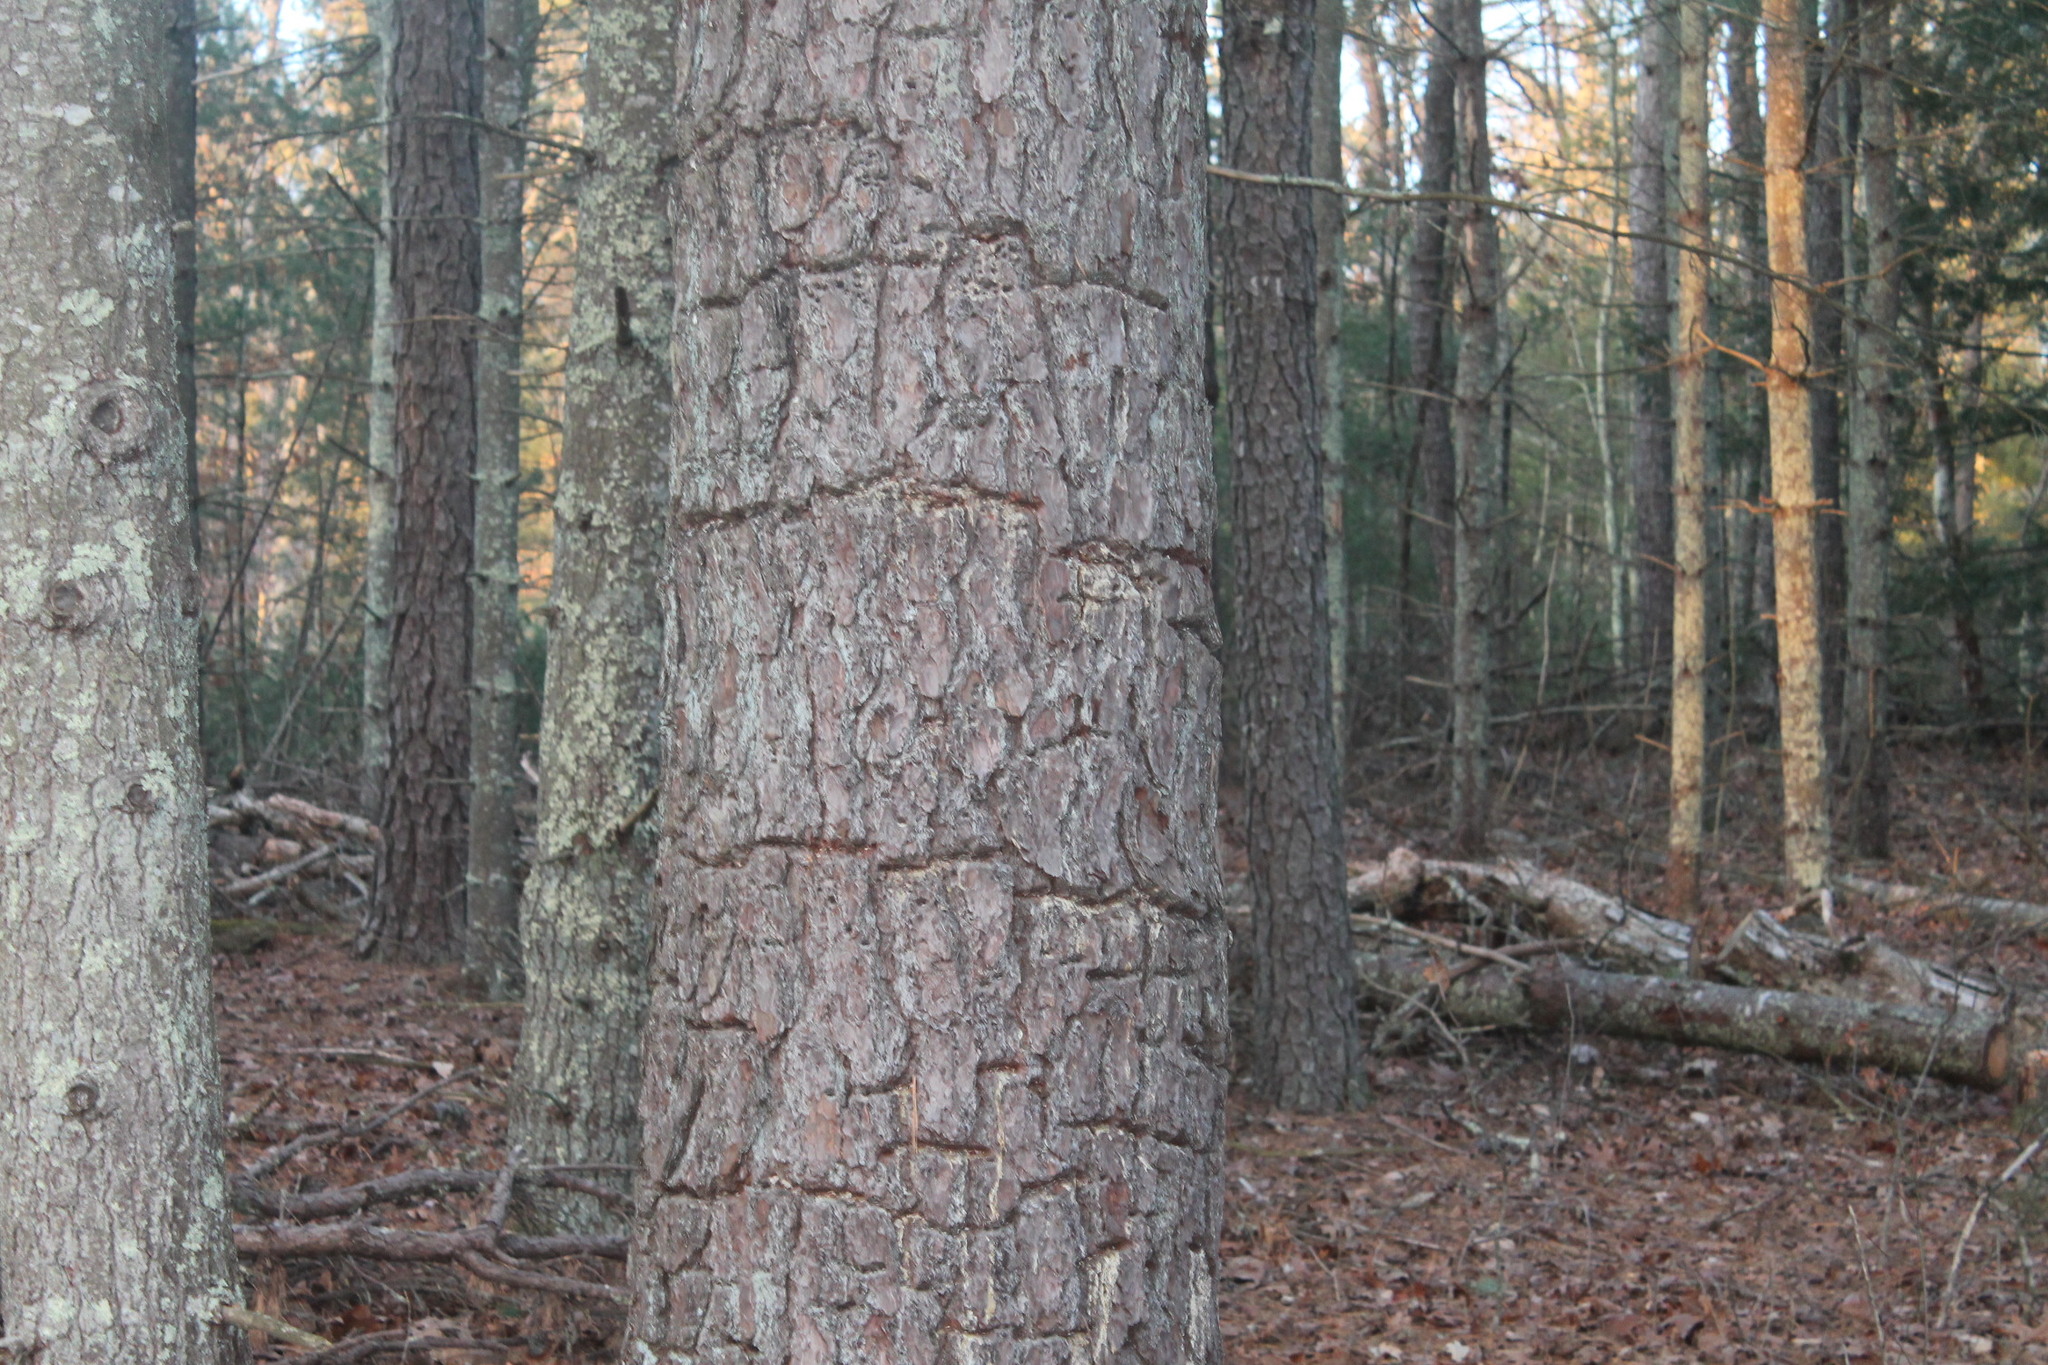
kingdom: Animalia
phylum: Chordata
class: Aves
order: Piciformes
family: Picidae
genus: Sphyrapicus
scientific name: Sphyrapicus varius
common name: Yellow-bellied sapsucker
